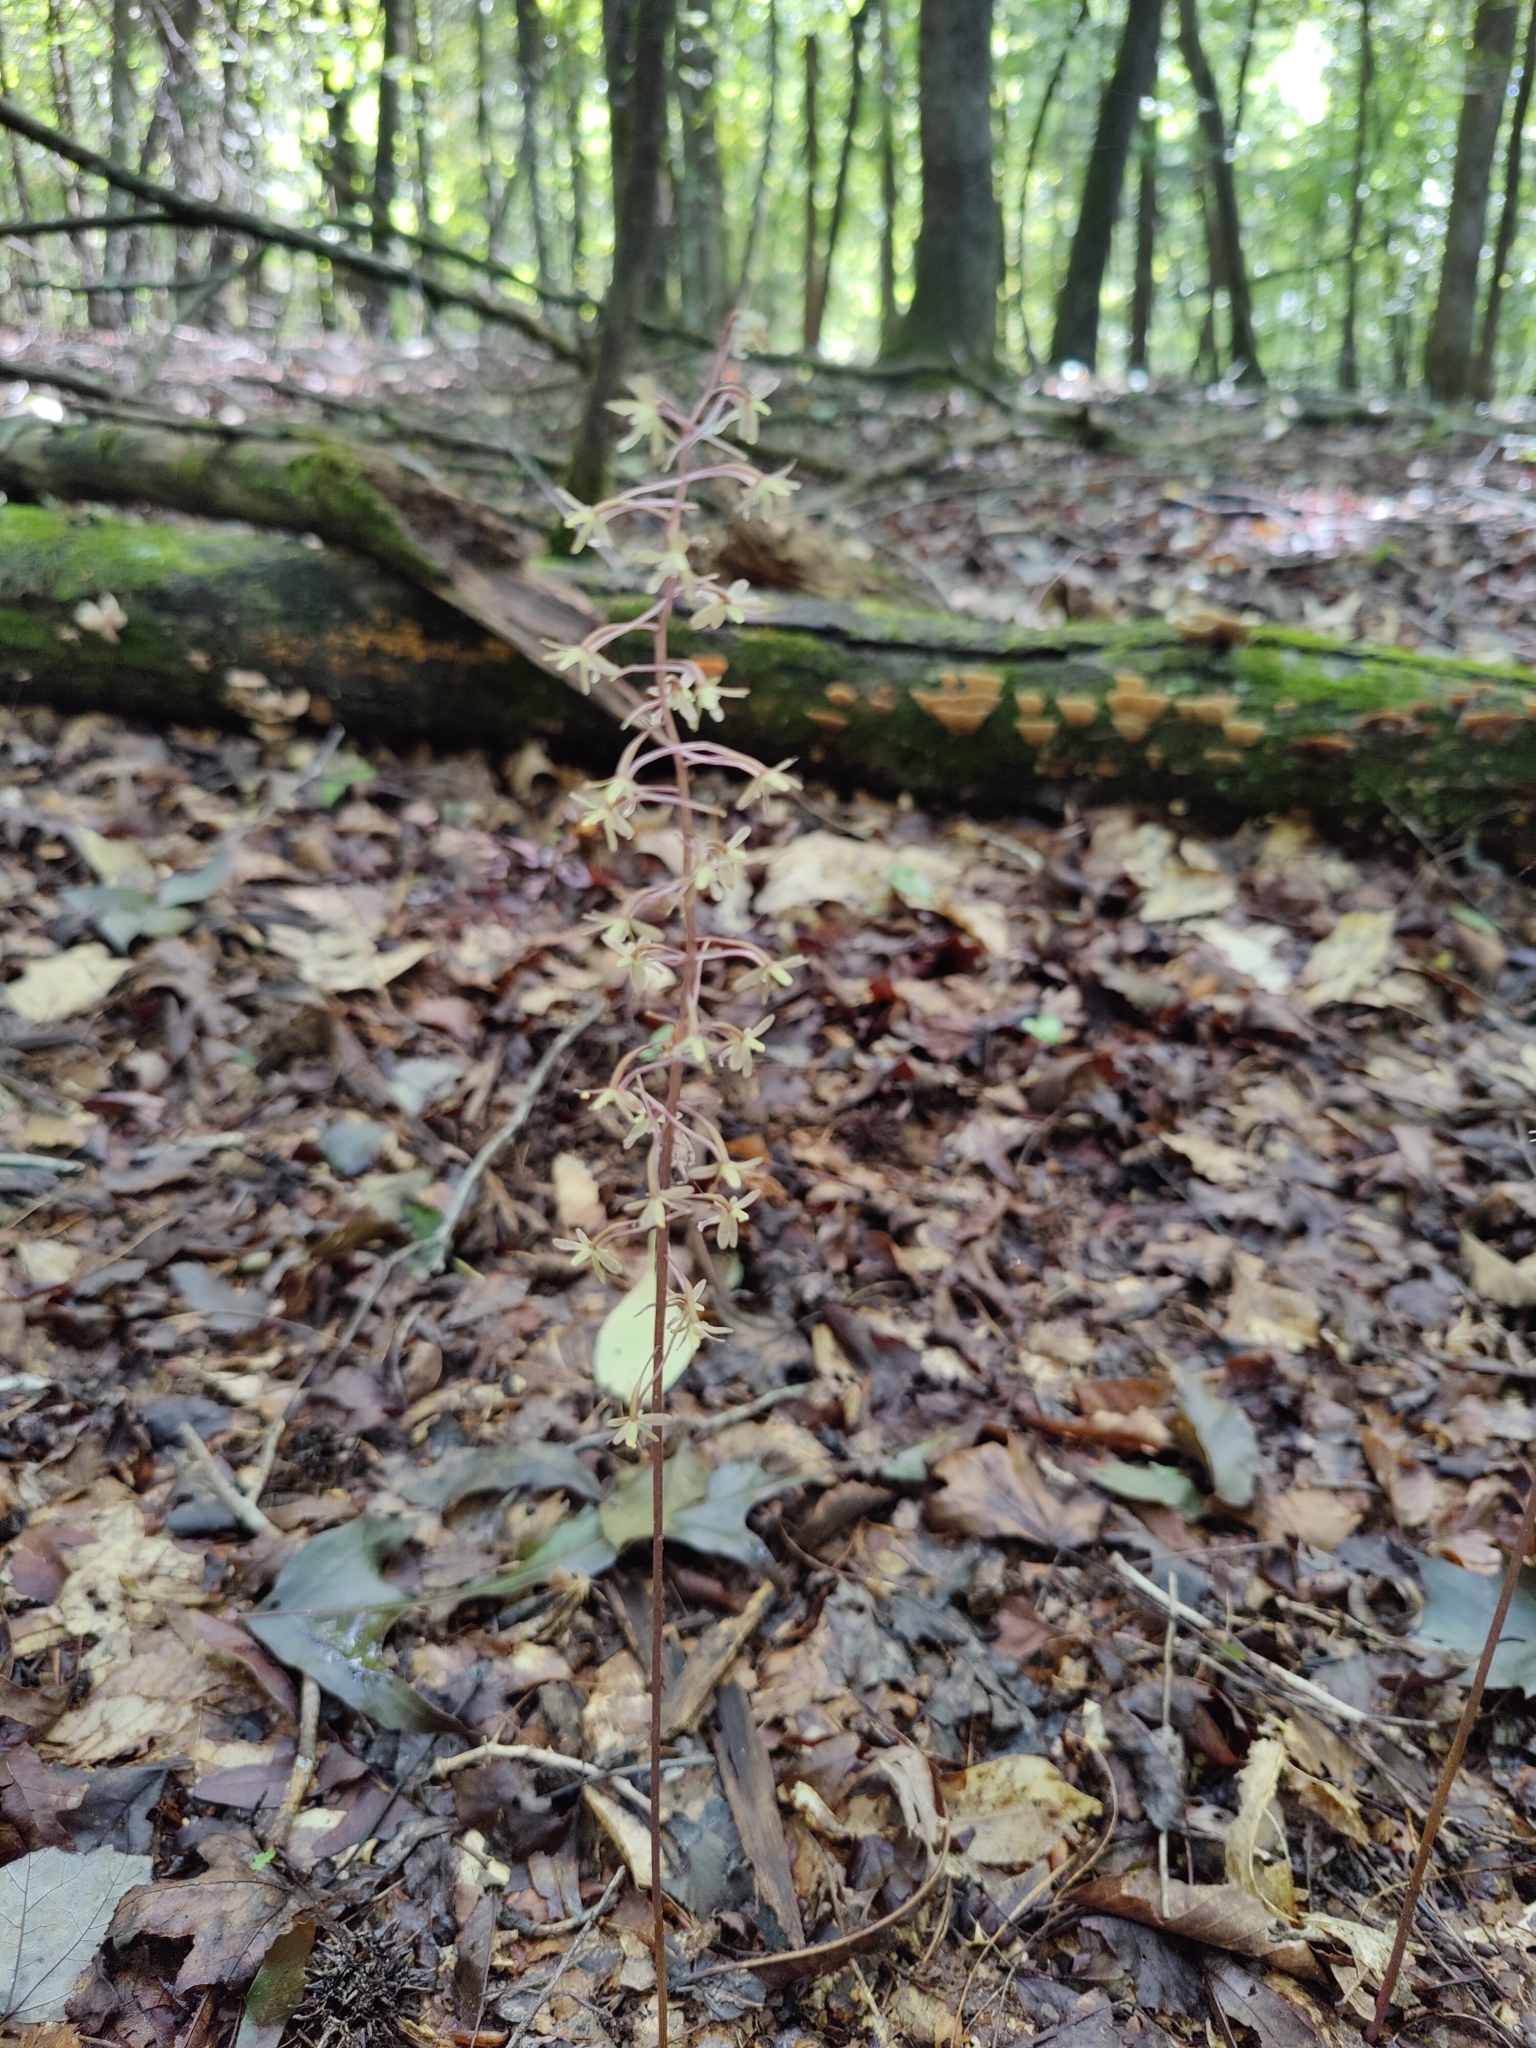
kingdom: Plantae
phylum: Tracheophyta
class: Liliopsida
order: Asparagales
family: Orchidaceae
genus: Tipularia
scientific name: Tipularia discolor
